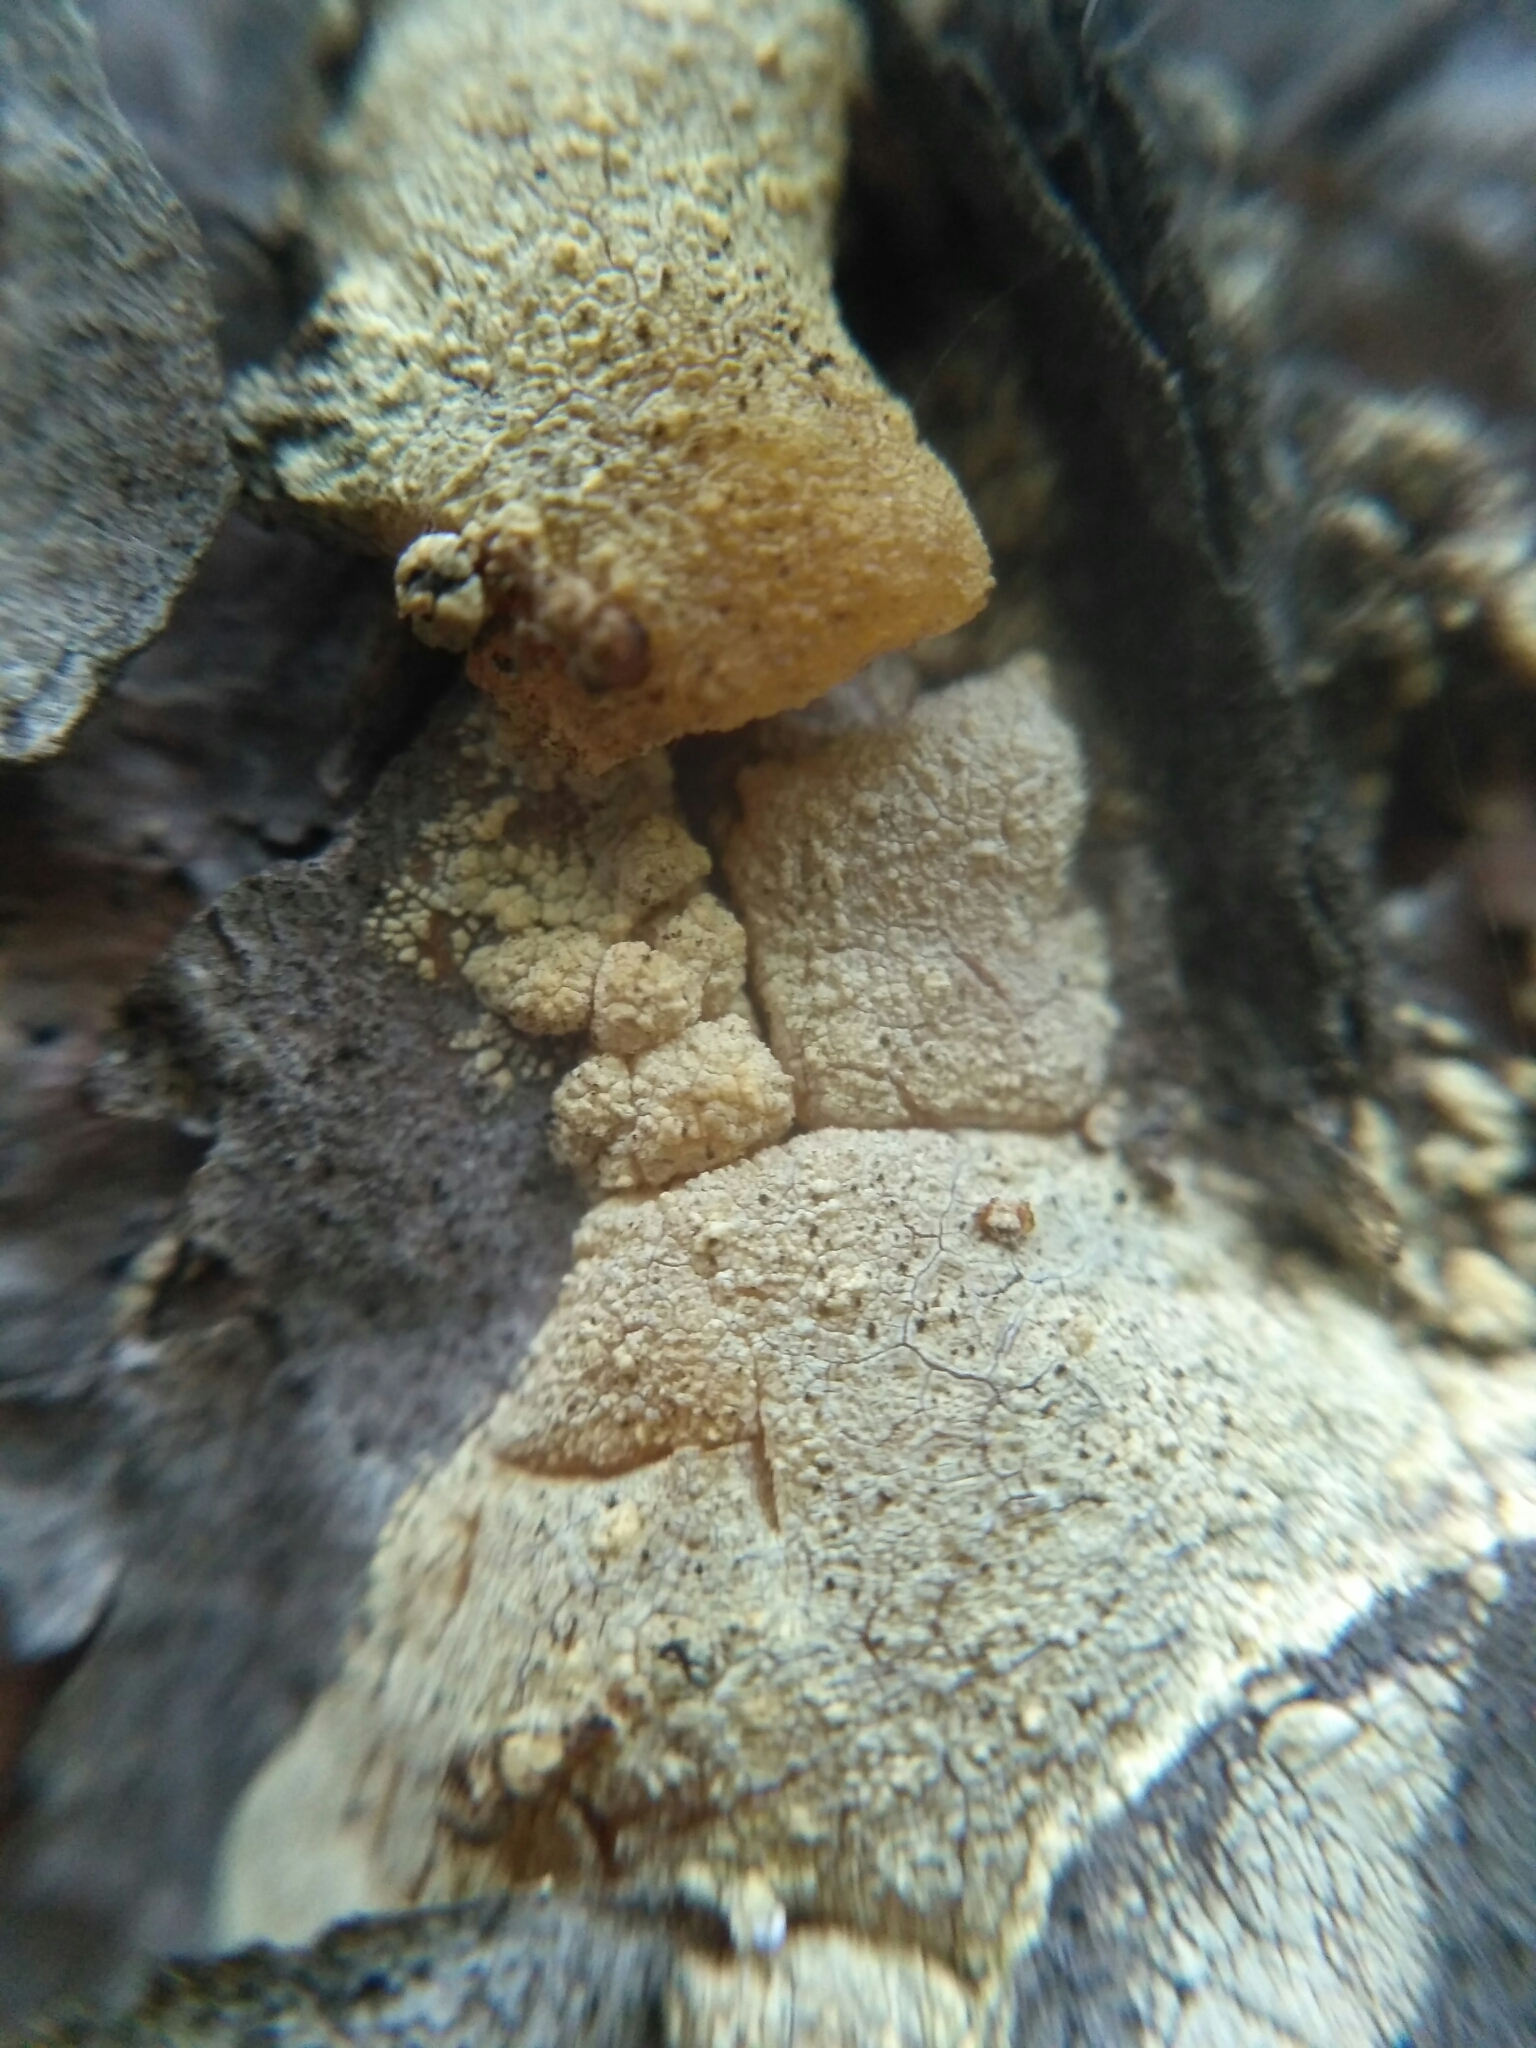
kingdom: Plantae
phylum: Tracheophyta
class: Pinopsida
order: Pinales
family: Pinaceae
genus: Pinus
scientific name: Pinus sylvestris
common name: Scots pine
